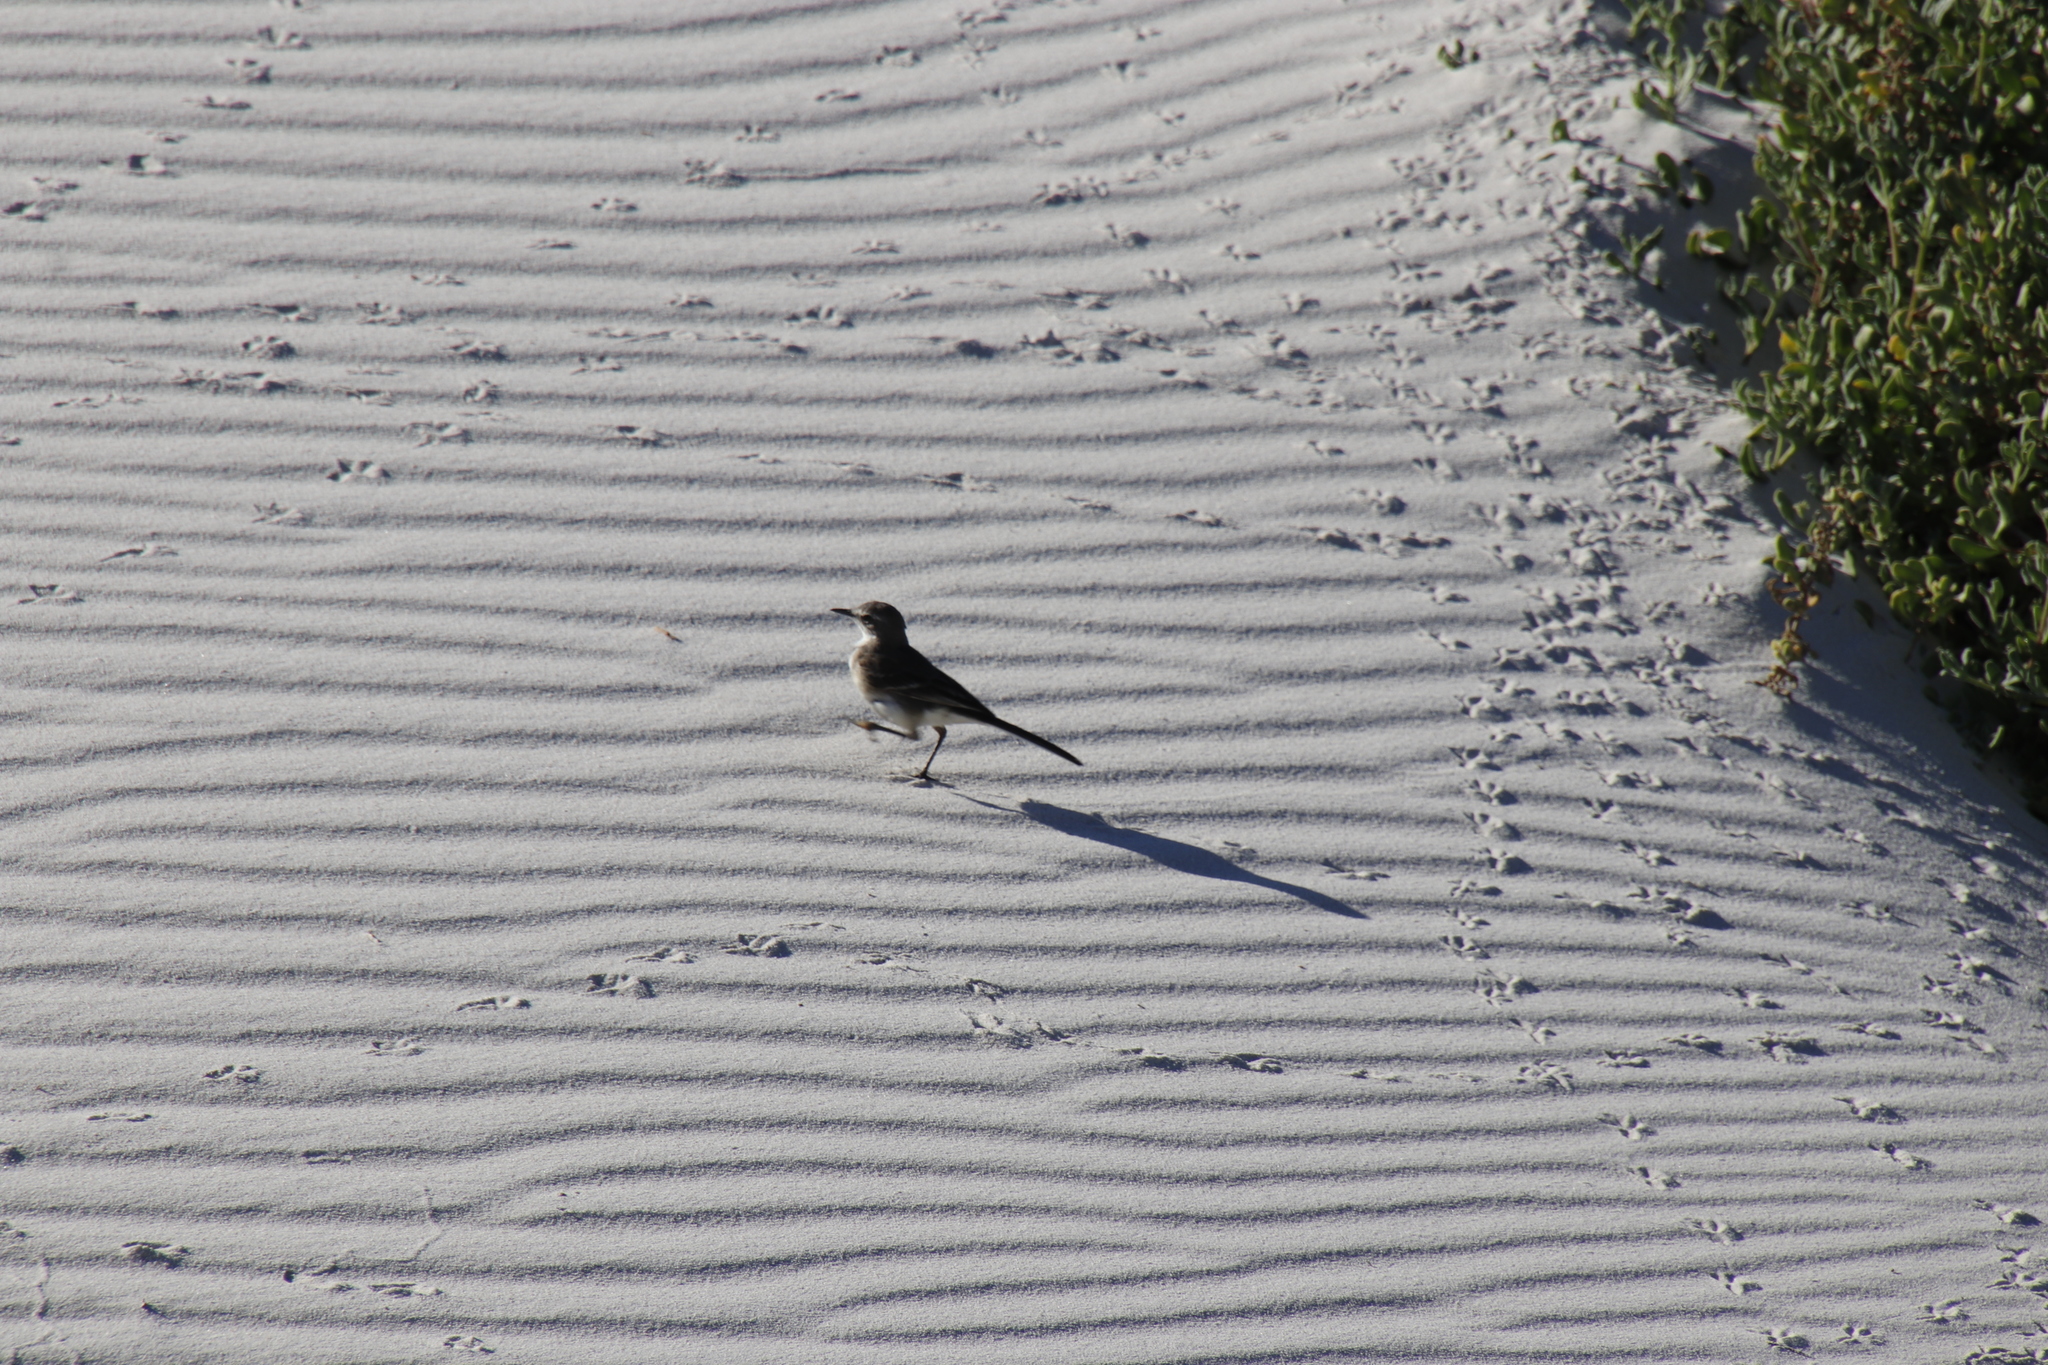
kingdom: Animalia
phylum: Chordata
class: Aves
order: Passeriformes
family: Motacillidae
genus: Motacilla
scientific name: Motacilla capensis
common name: Cape wagtail
